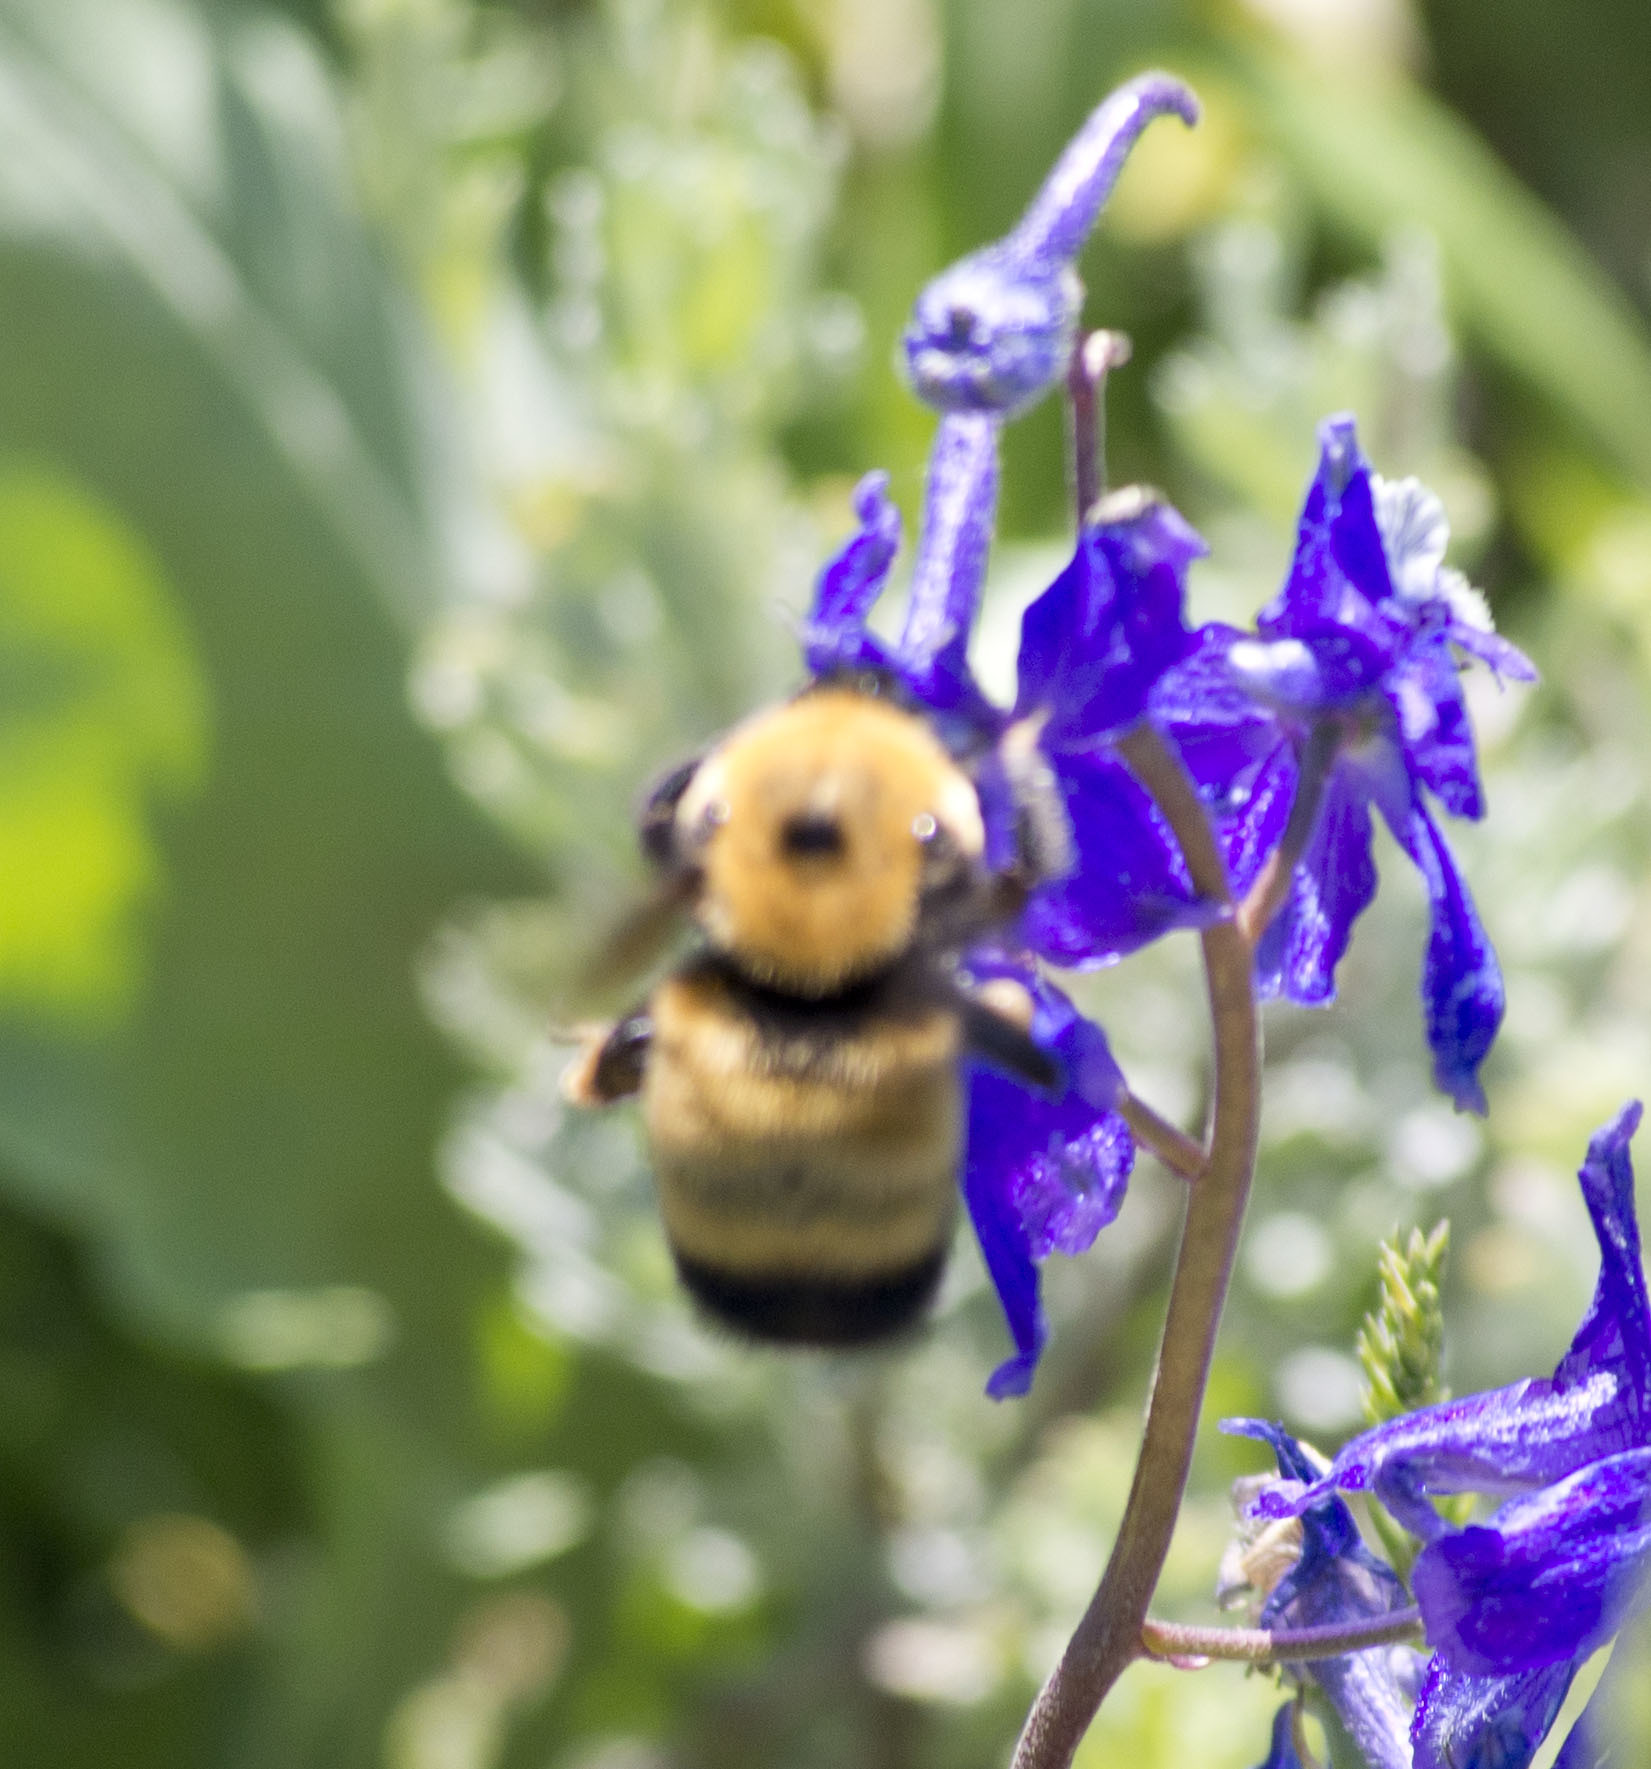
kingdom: Animalia
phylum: Arthropoda
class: Insecta
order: Hymenoptera
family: Apidae
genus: Bombus
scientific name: Bombus nevadensis
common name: Nevada bumble bee
